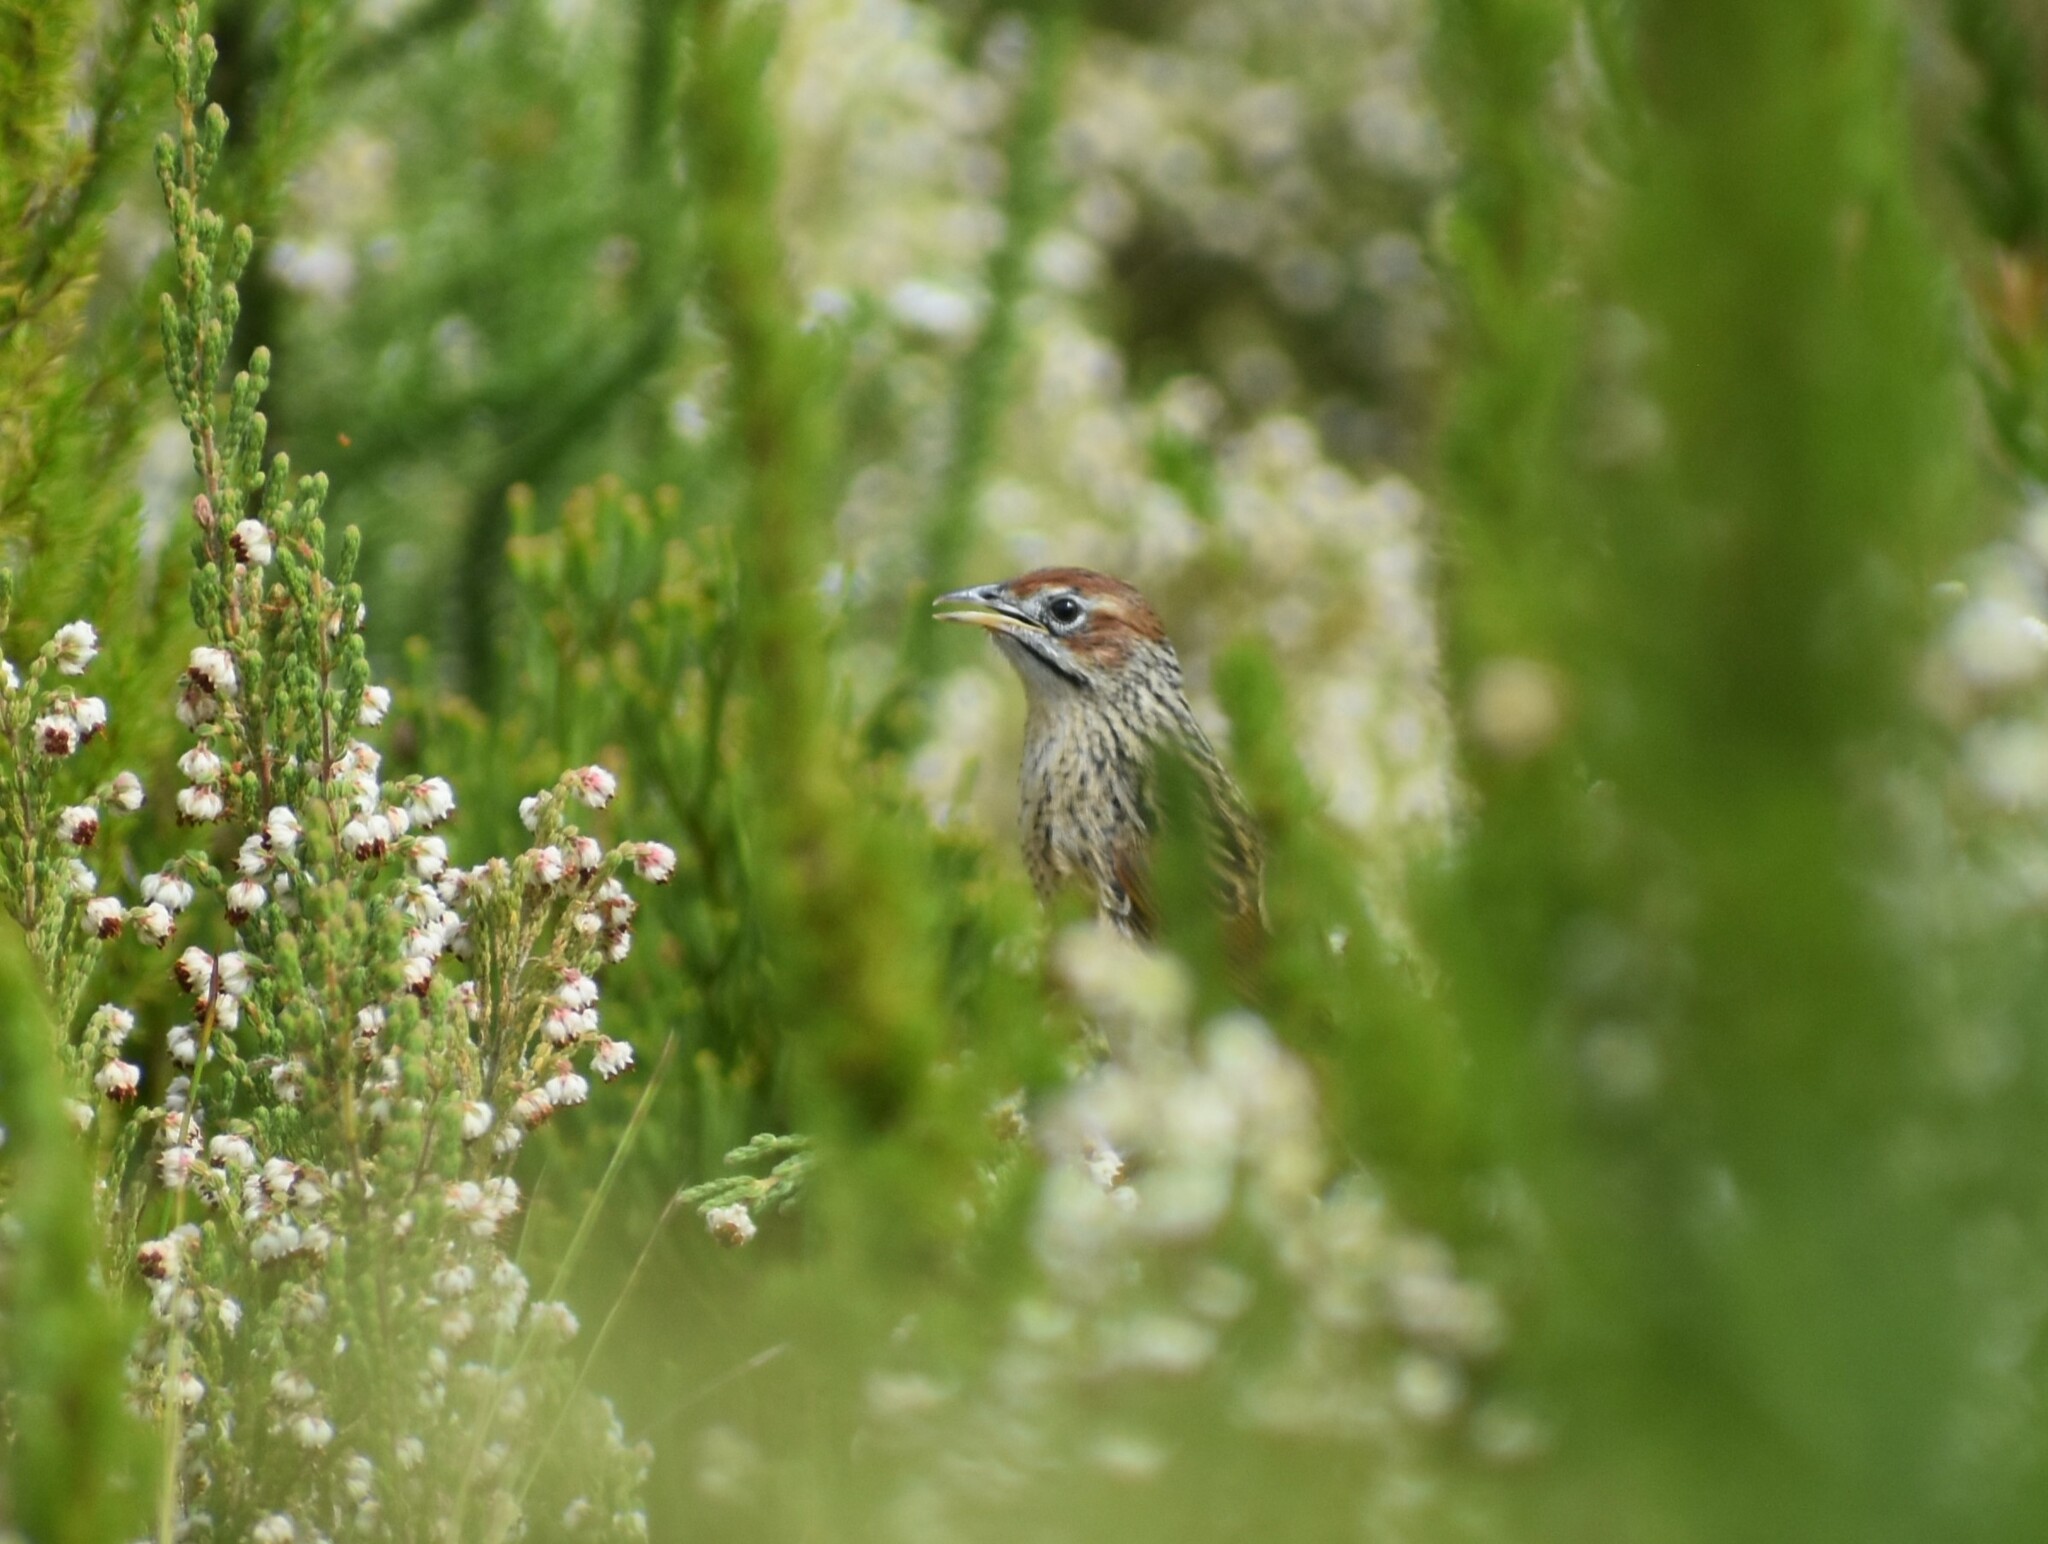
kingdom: Animalia
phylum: Chordata
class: Aves
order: Passeriformes
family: Macrosphenidae
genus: Sphenoeacus
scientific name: Sphenoeacus afer
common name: Cape grassbird
